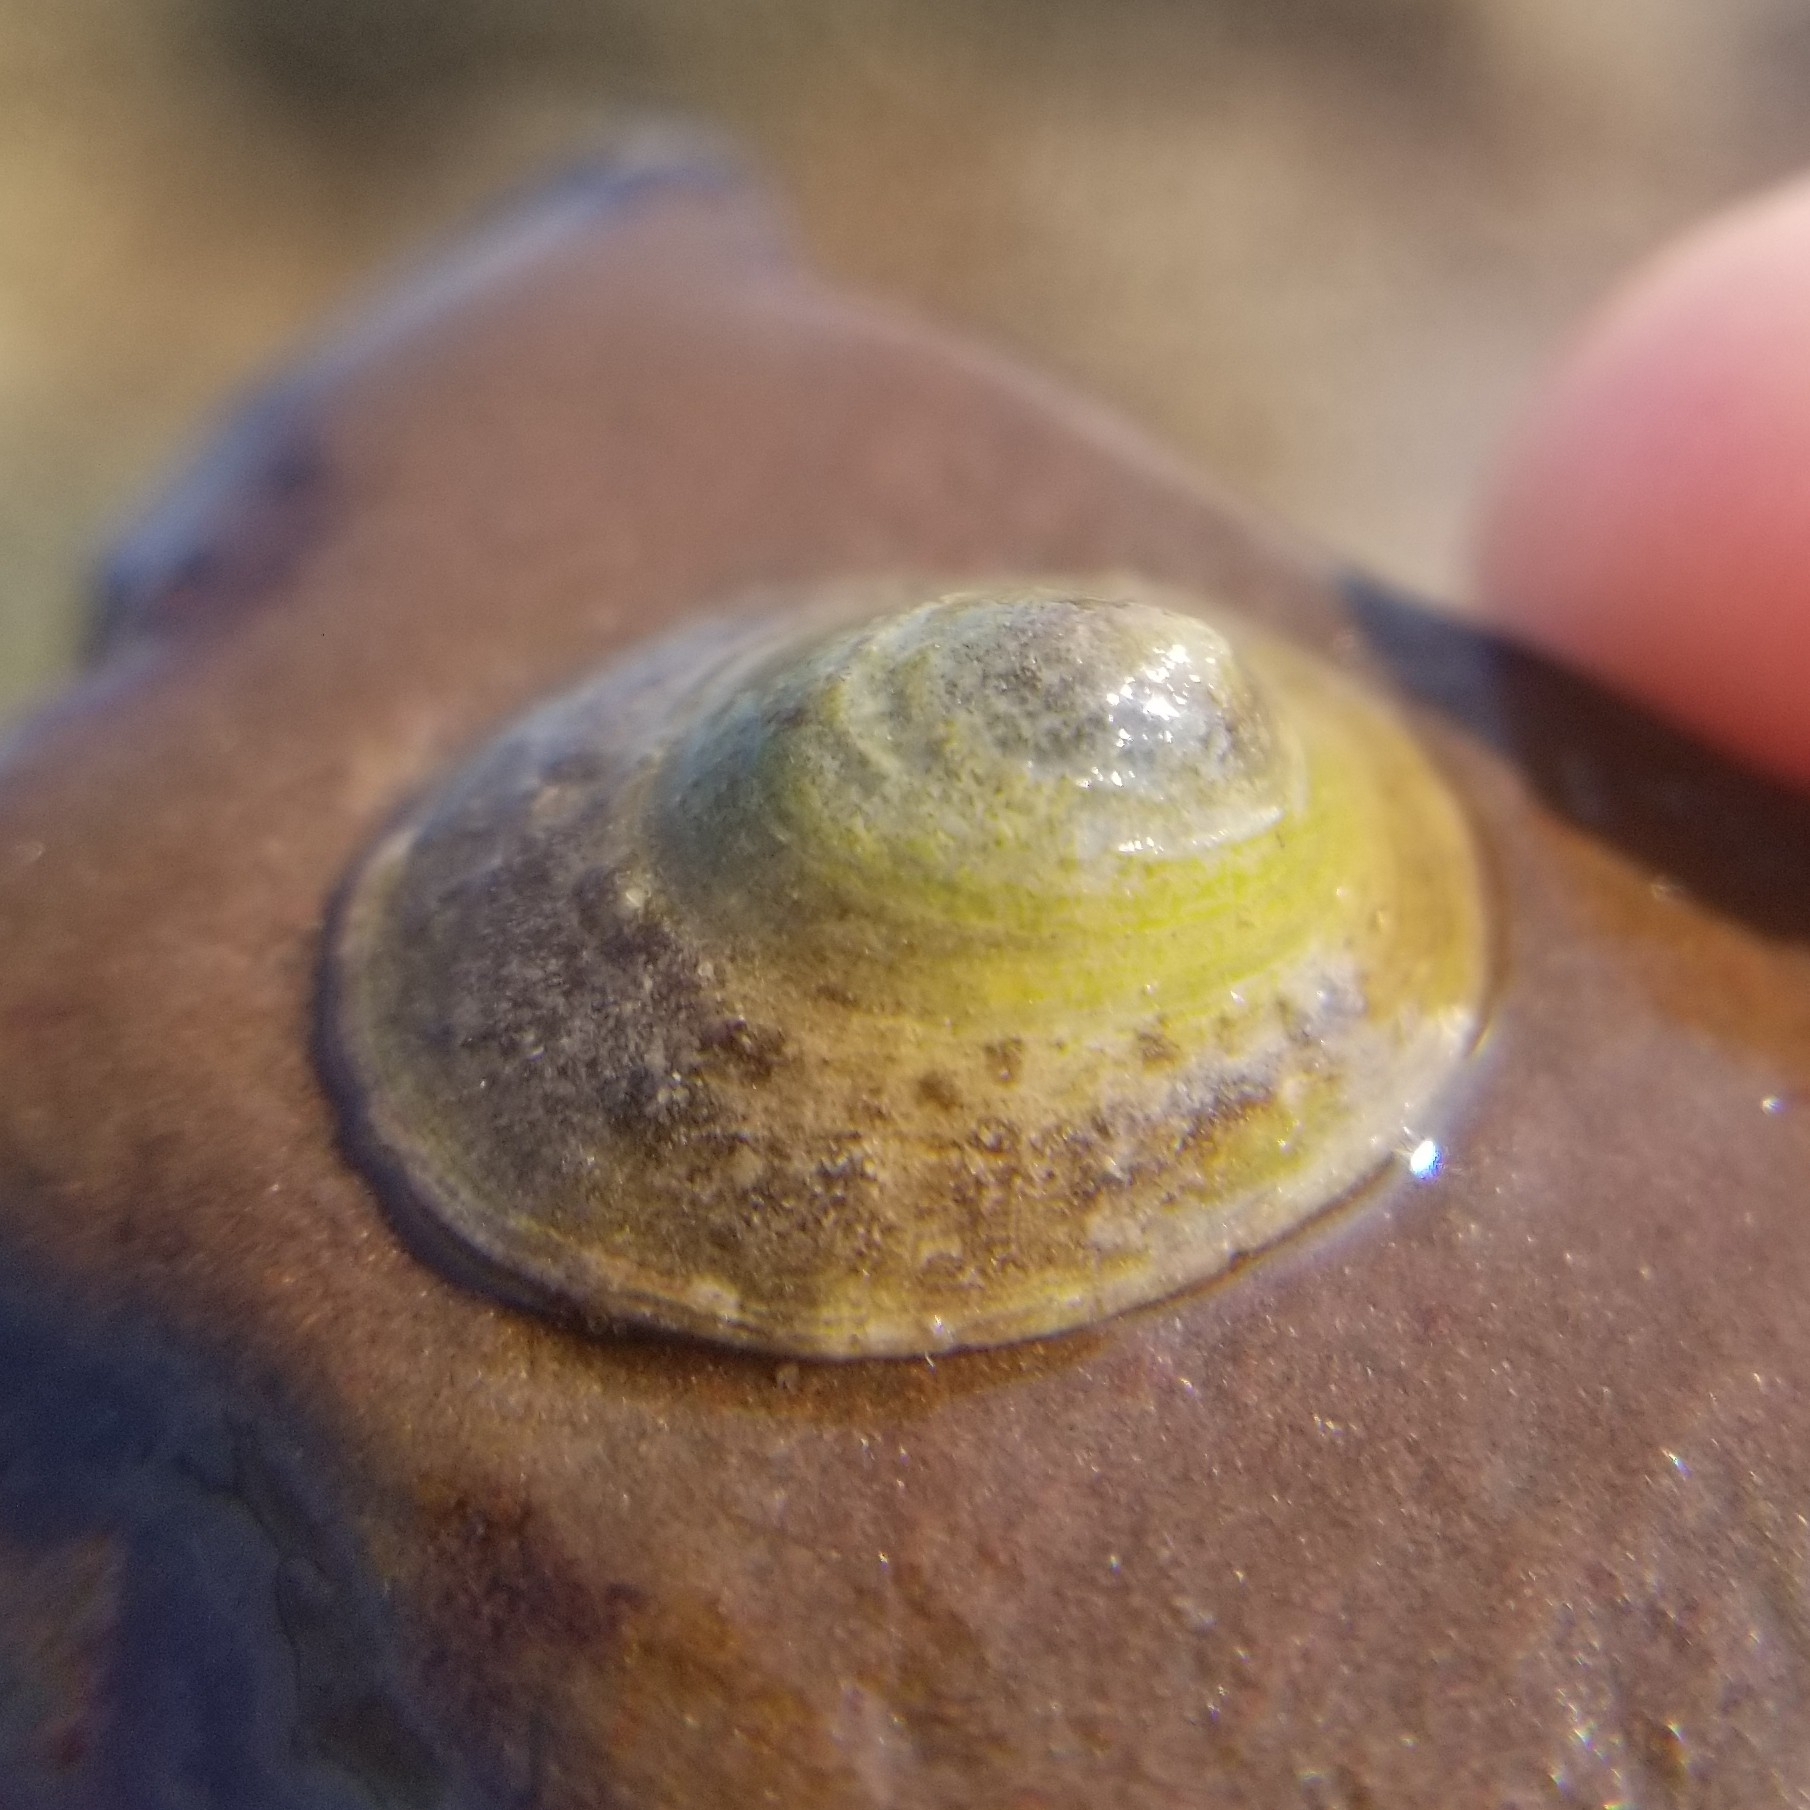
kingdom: Animalia
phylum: Mollusca
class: Gastropoda
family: Lottiidae
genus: Testudinalia
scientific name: Testudinalia testudinalis
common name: Common tortoiseshell limpet
